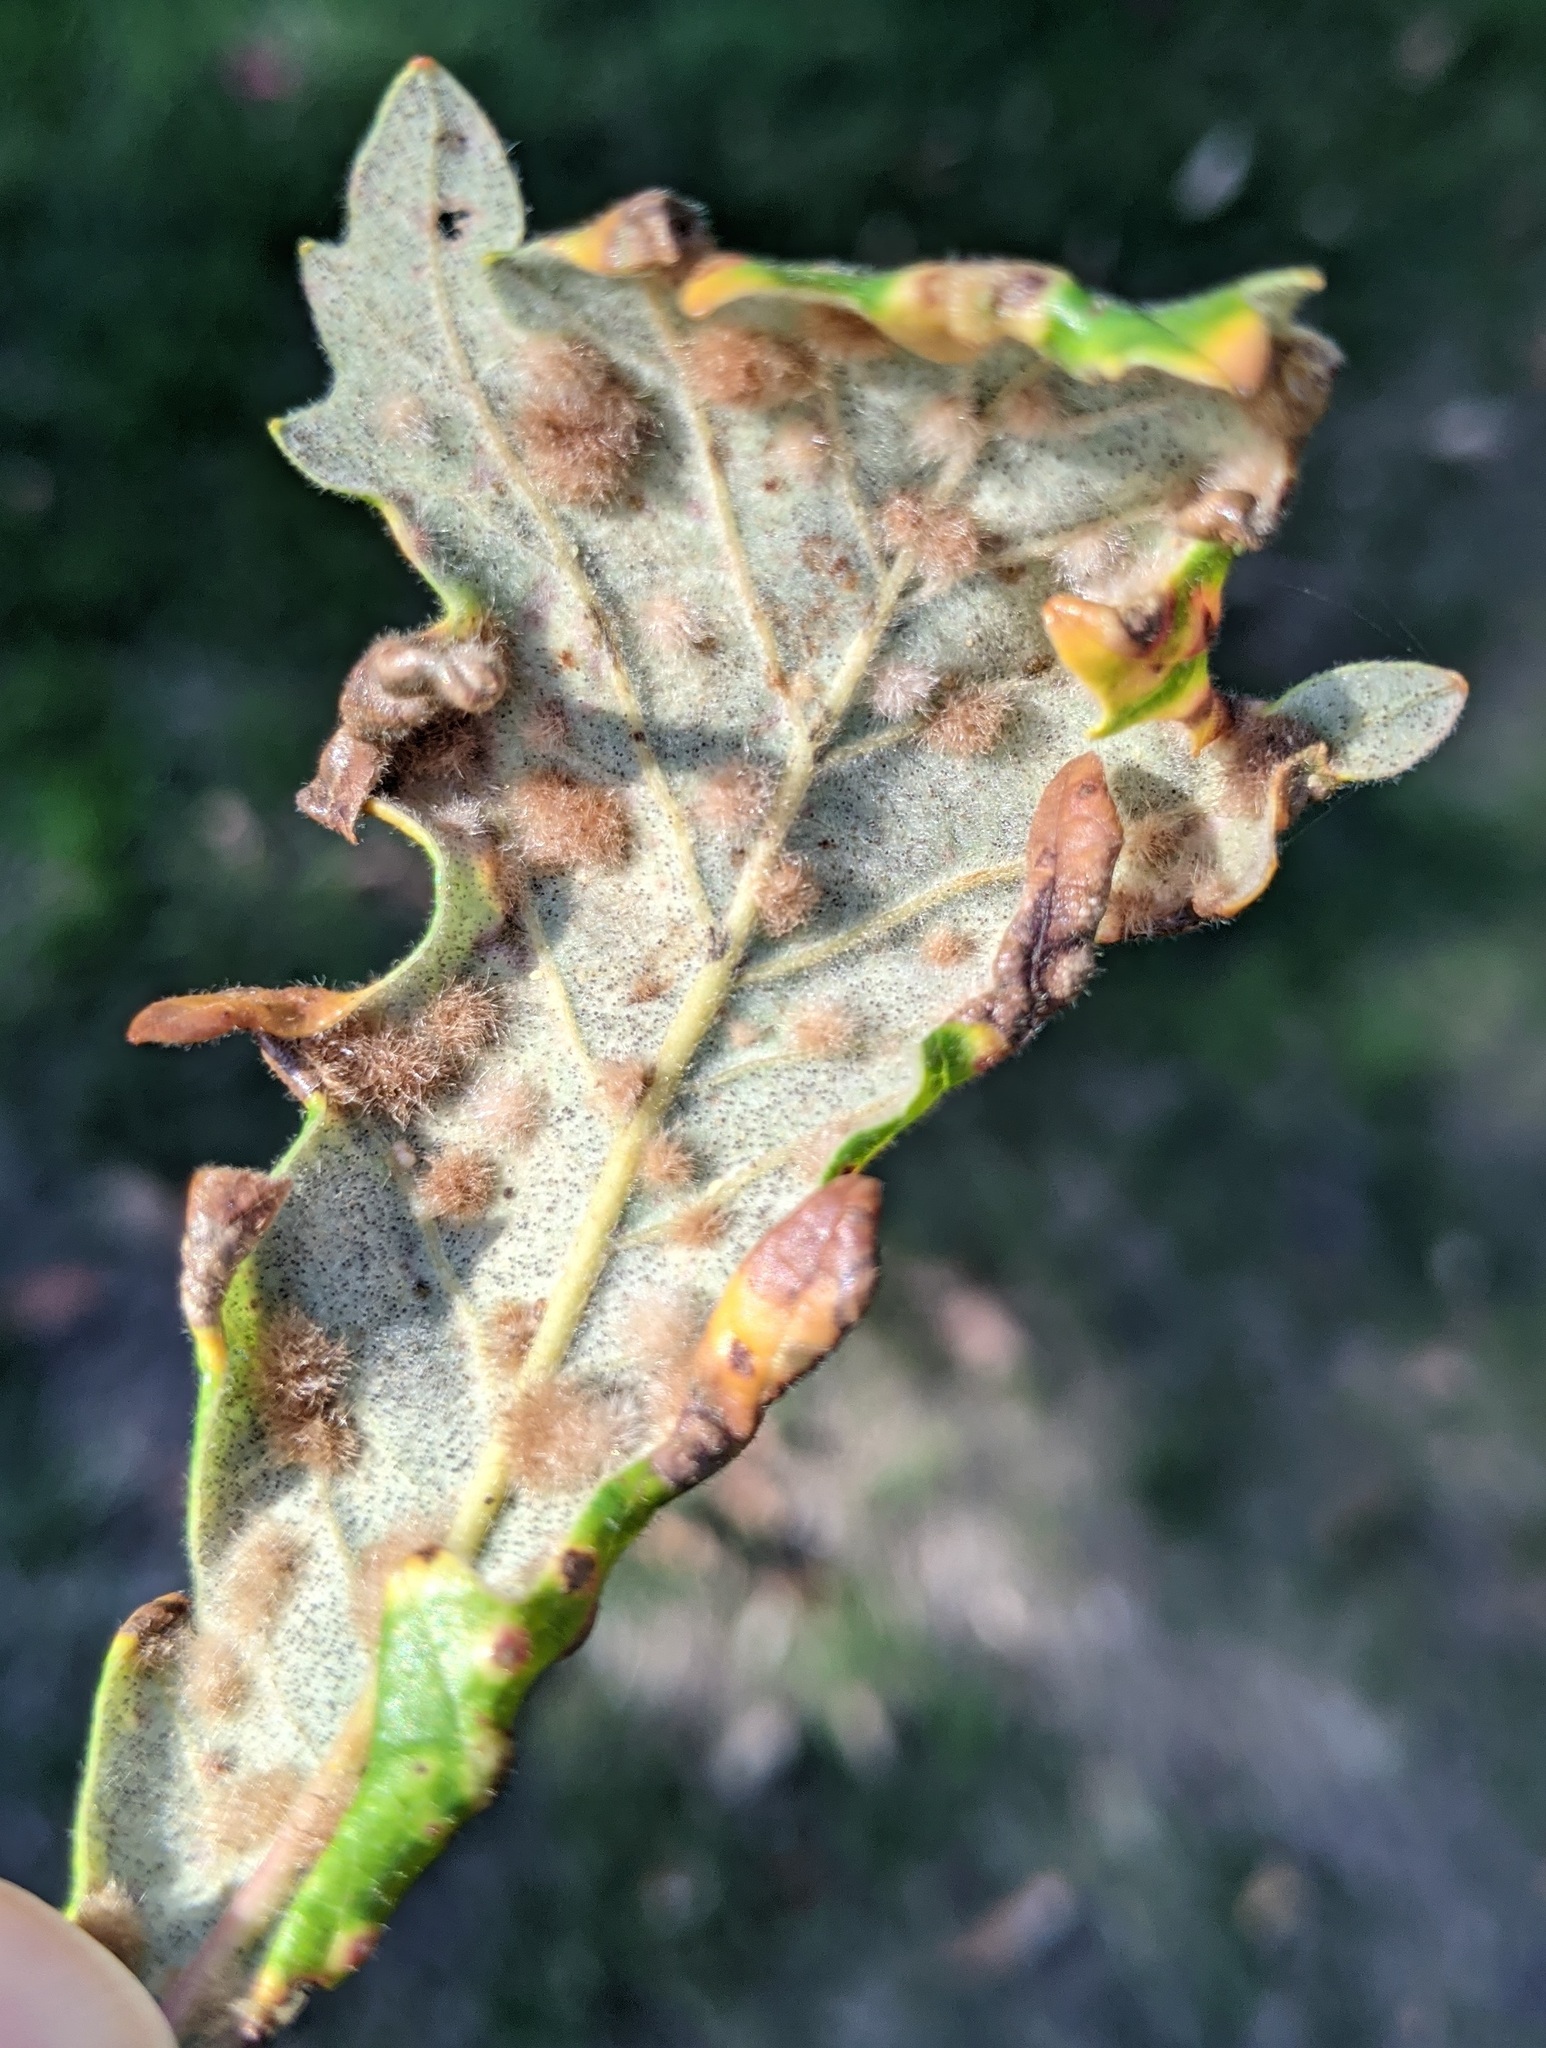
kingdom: Animalia
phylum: Arthropoda
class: Insecta
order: Hymenoptera
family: Cynipidae
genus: Neuroterus
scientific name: Neuroterus floccosus
